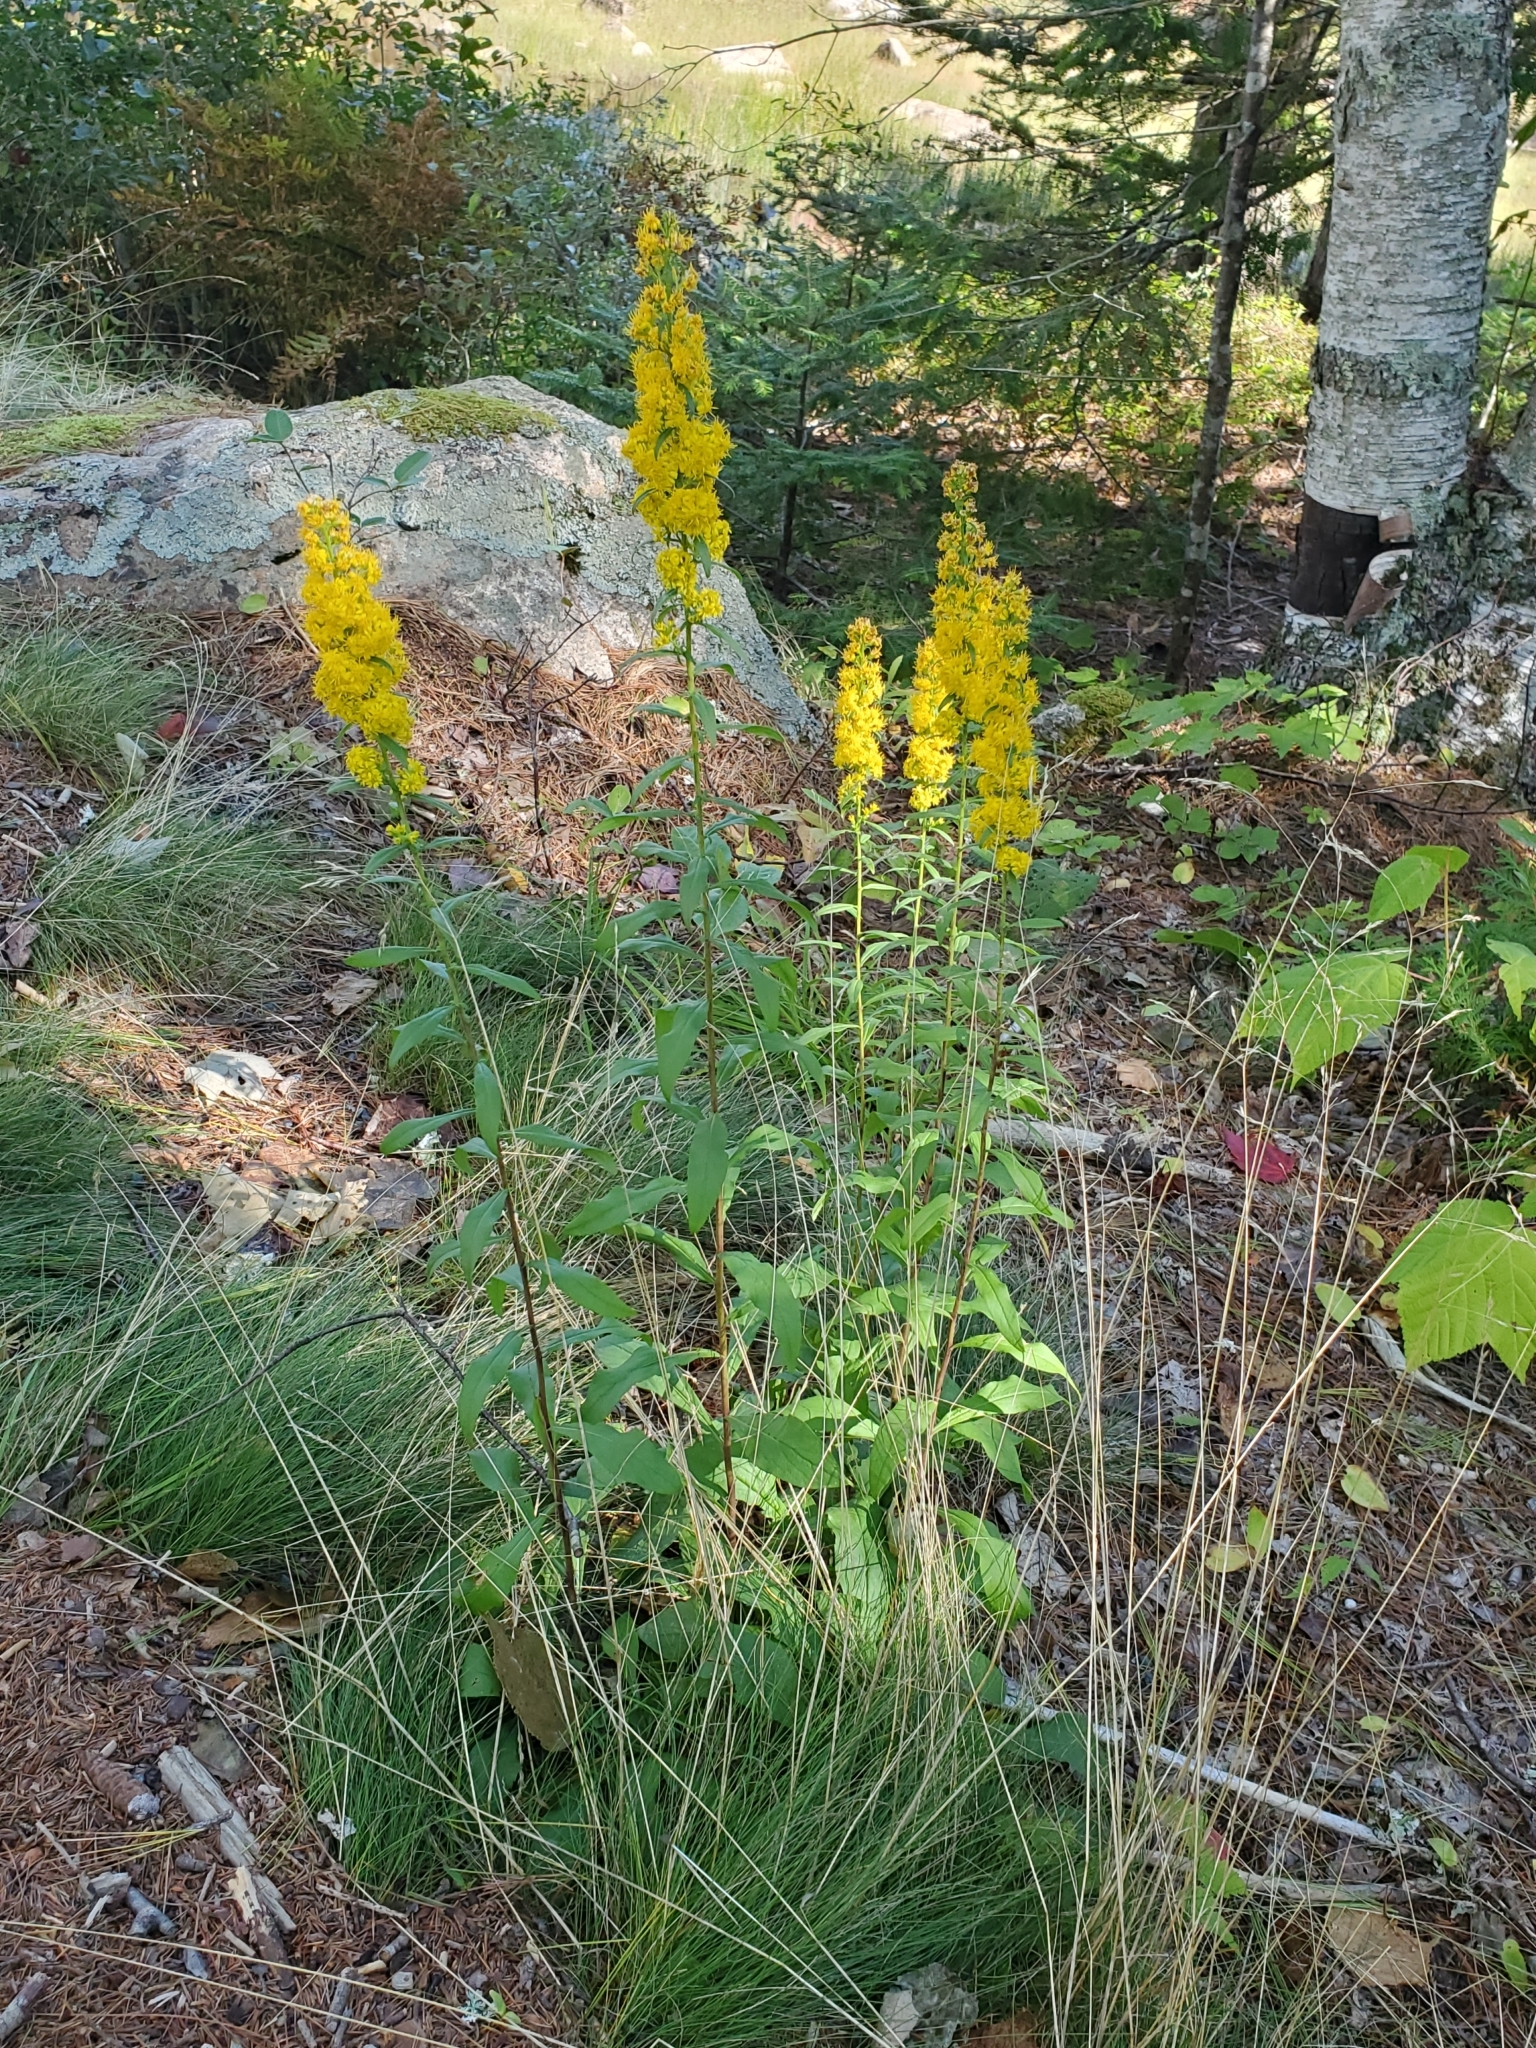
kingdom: Plantae
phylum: Tracheophyta
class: Magnoliopsida
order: Asterales
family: Asteraceae
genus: Solidago
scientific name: Solidago puberula
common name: Downy goldenrod
